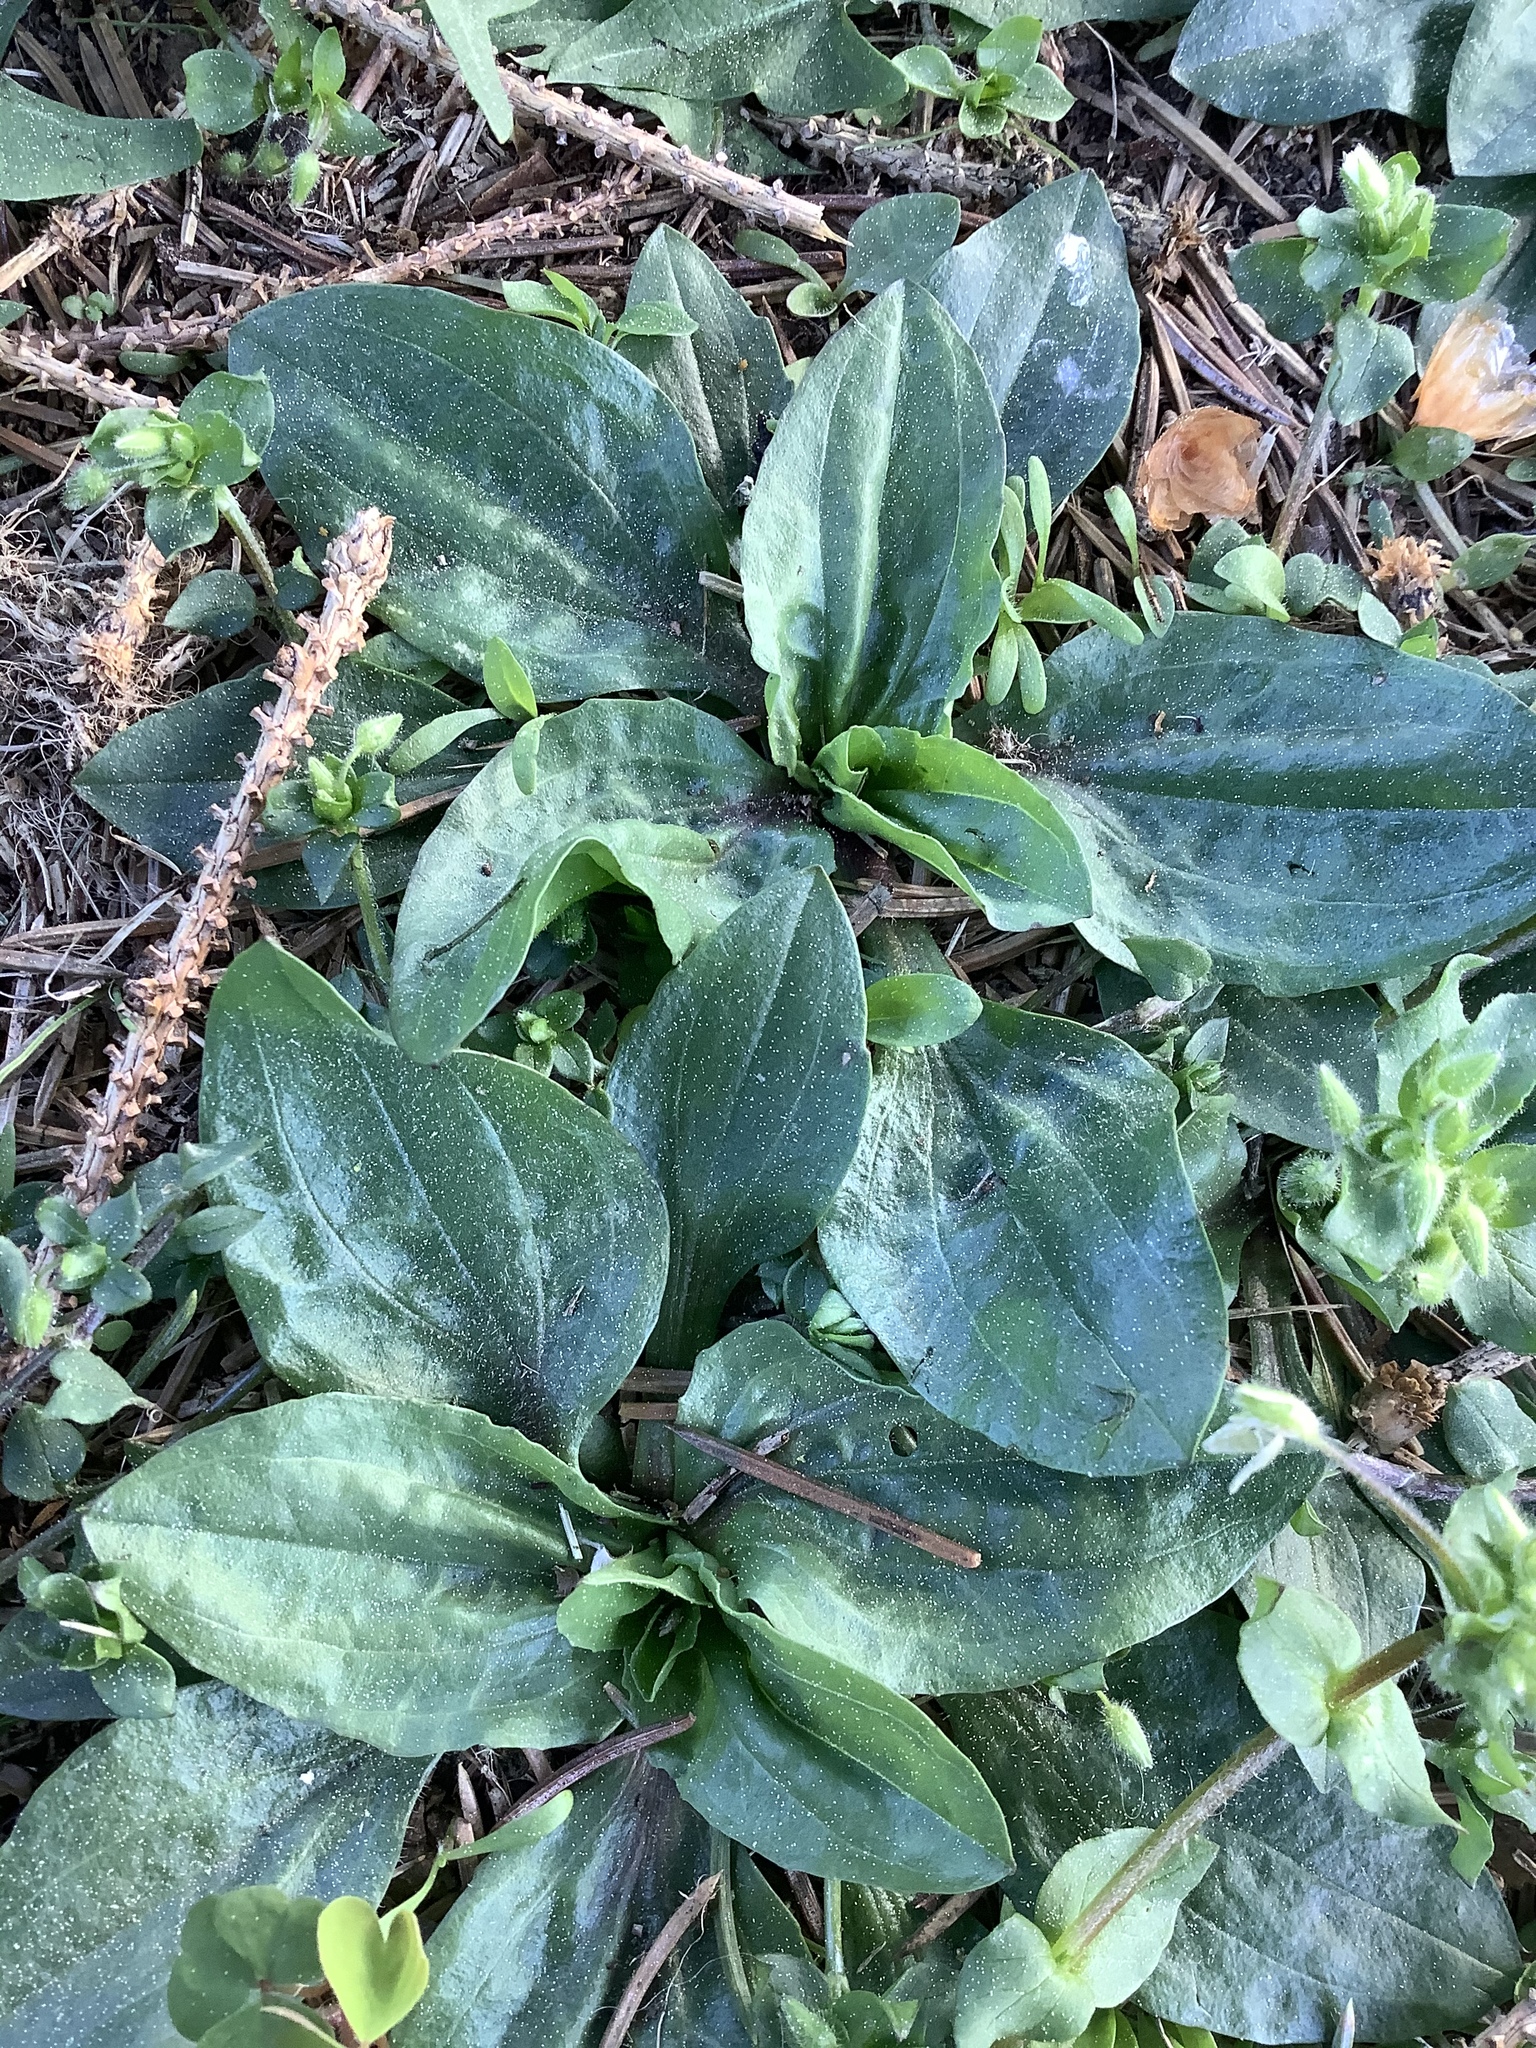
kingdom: Plantae
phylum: Tracheophyta
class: Magnoliopsida
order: Lamiales
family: Plantaginaceae
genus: Plantago
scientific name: Plantago rugelii
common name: American plantain
